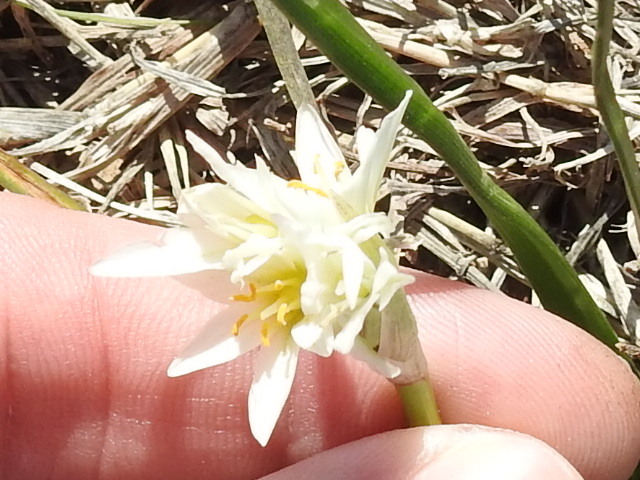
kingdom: Plantae
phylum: Tracheophyta
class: Liliopsida
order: Asparagales
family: Amaryllidaceae
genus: Nothoscordum
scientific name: Nothoscordum bivalve
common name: Crow-poison
